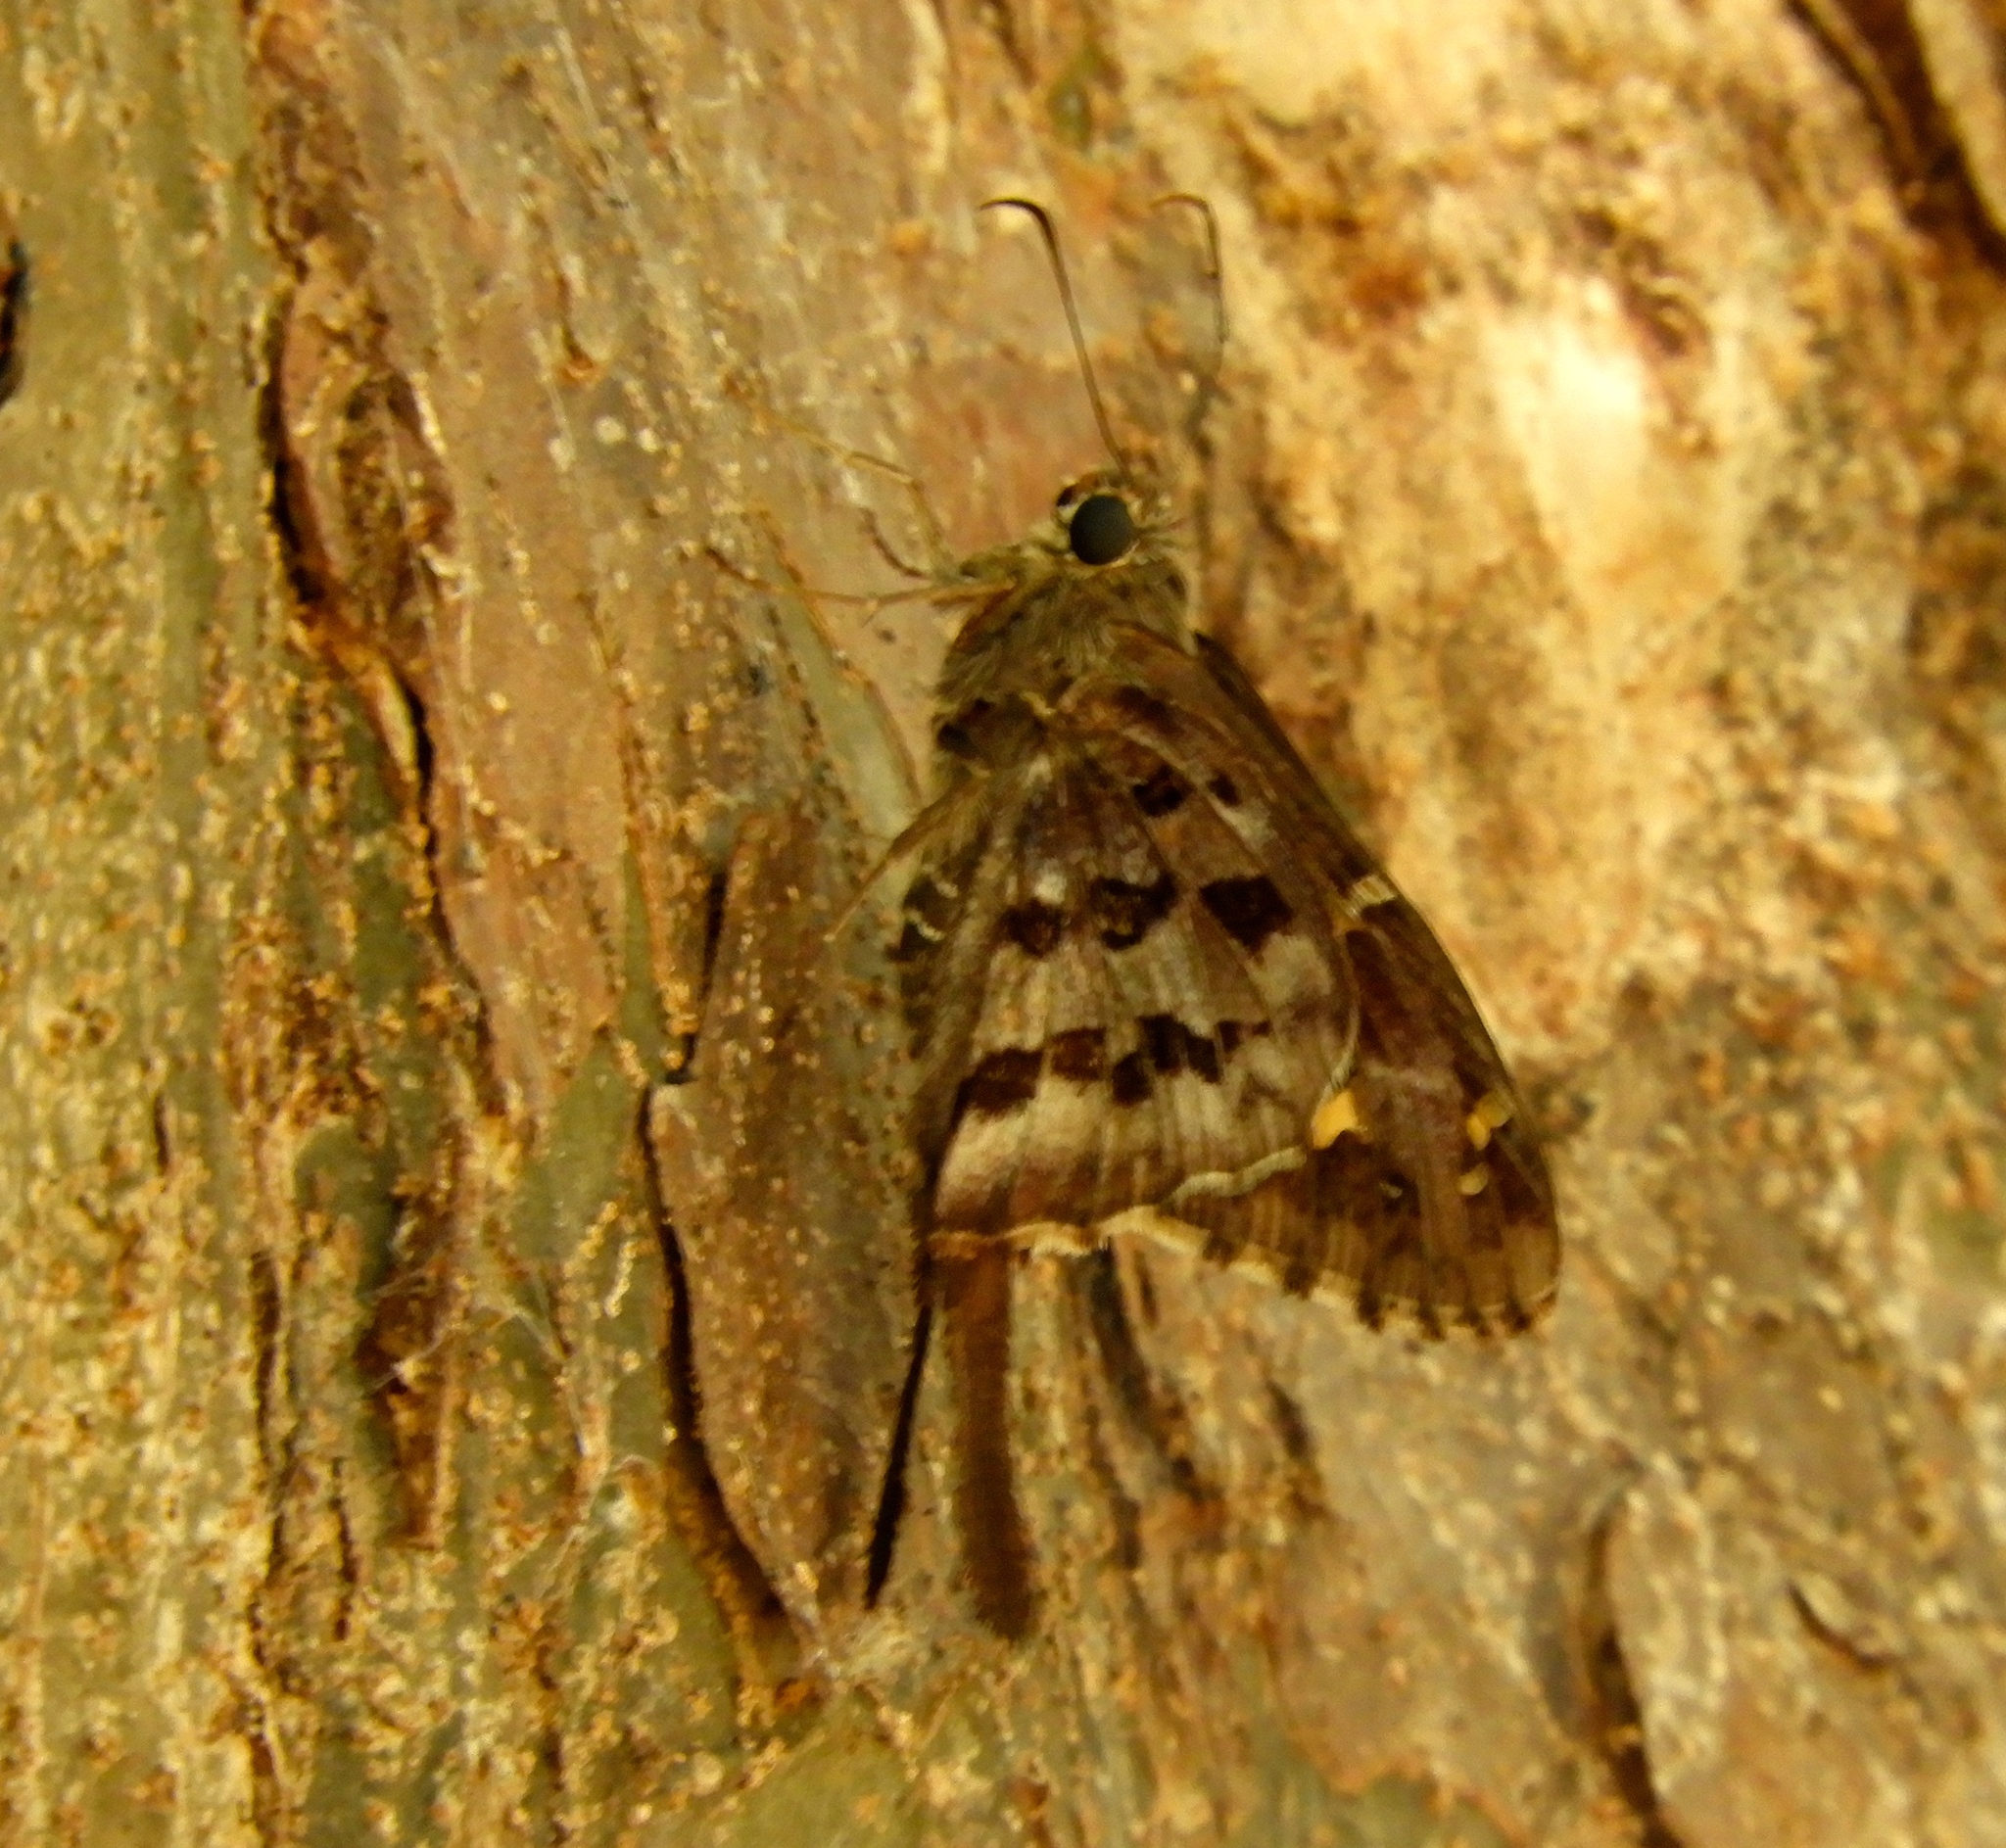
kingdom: Animalia
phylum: Arthropoda
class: Insecta
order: Lepidoptera
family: Hesperiidae
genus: Thorybes
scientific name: Thorybes
